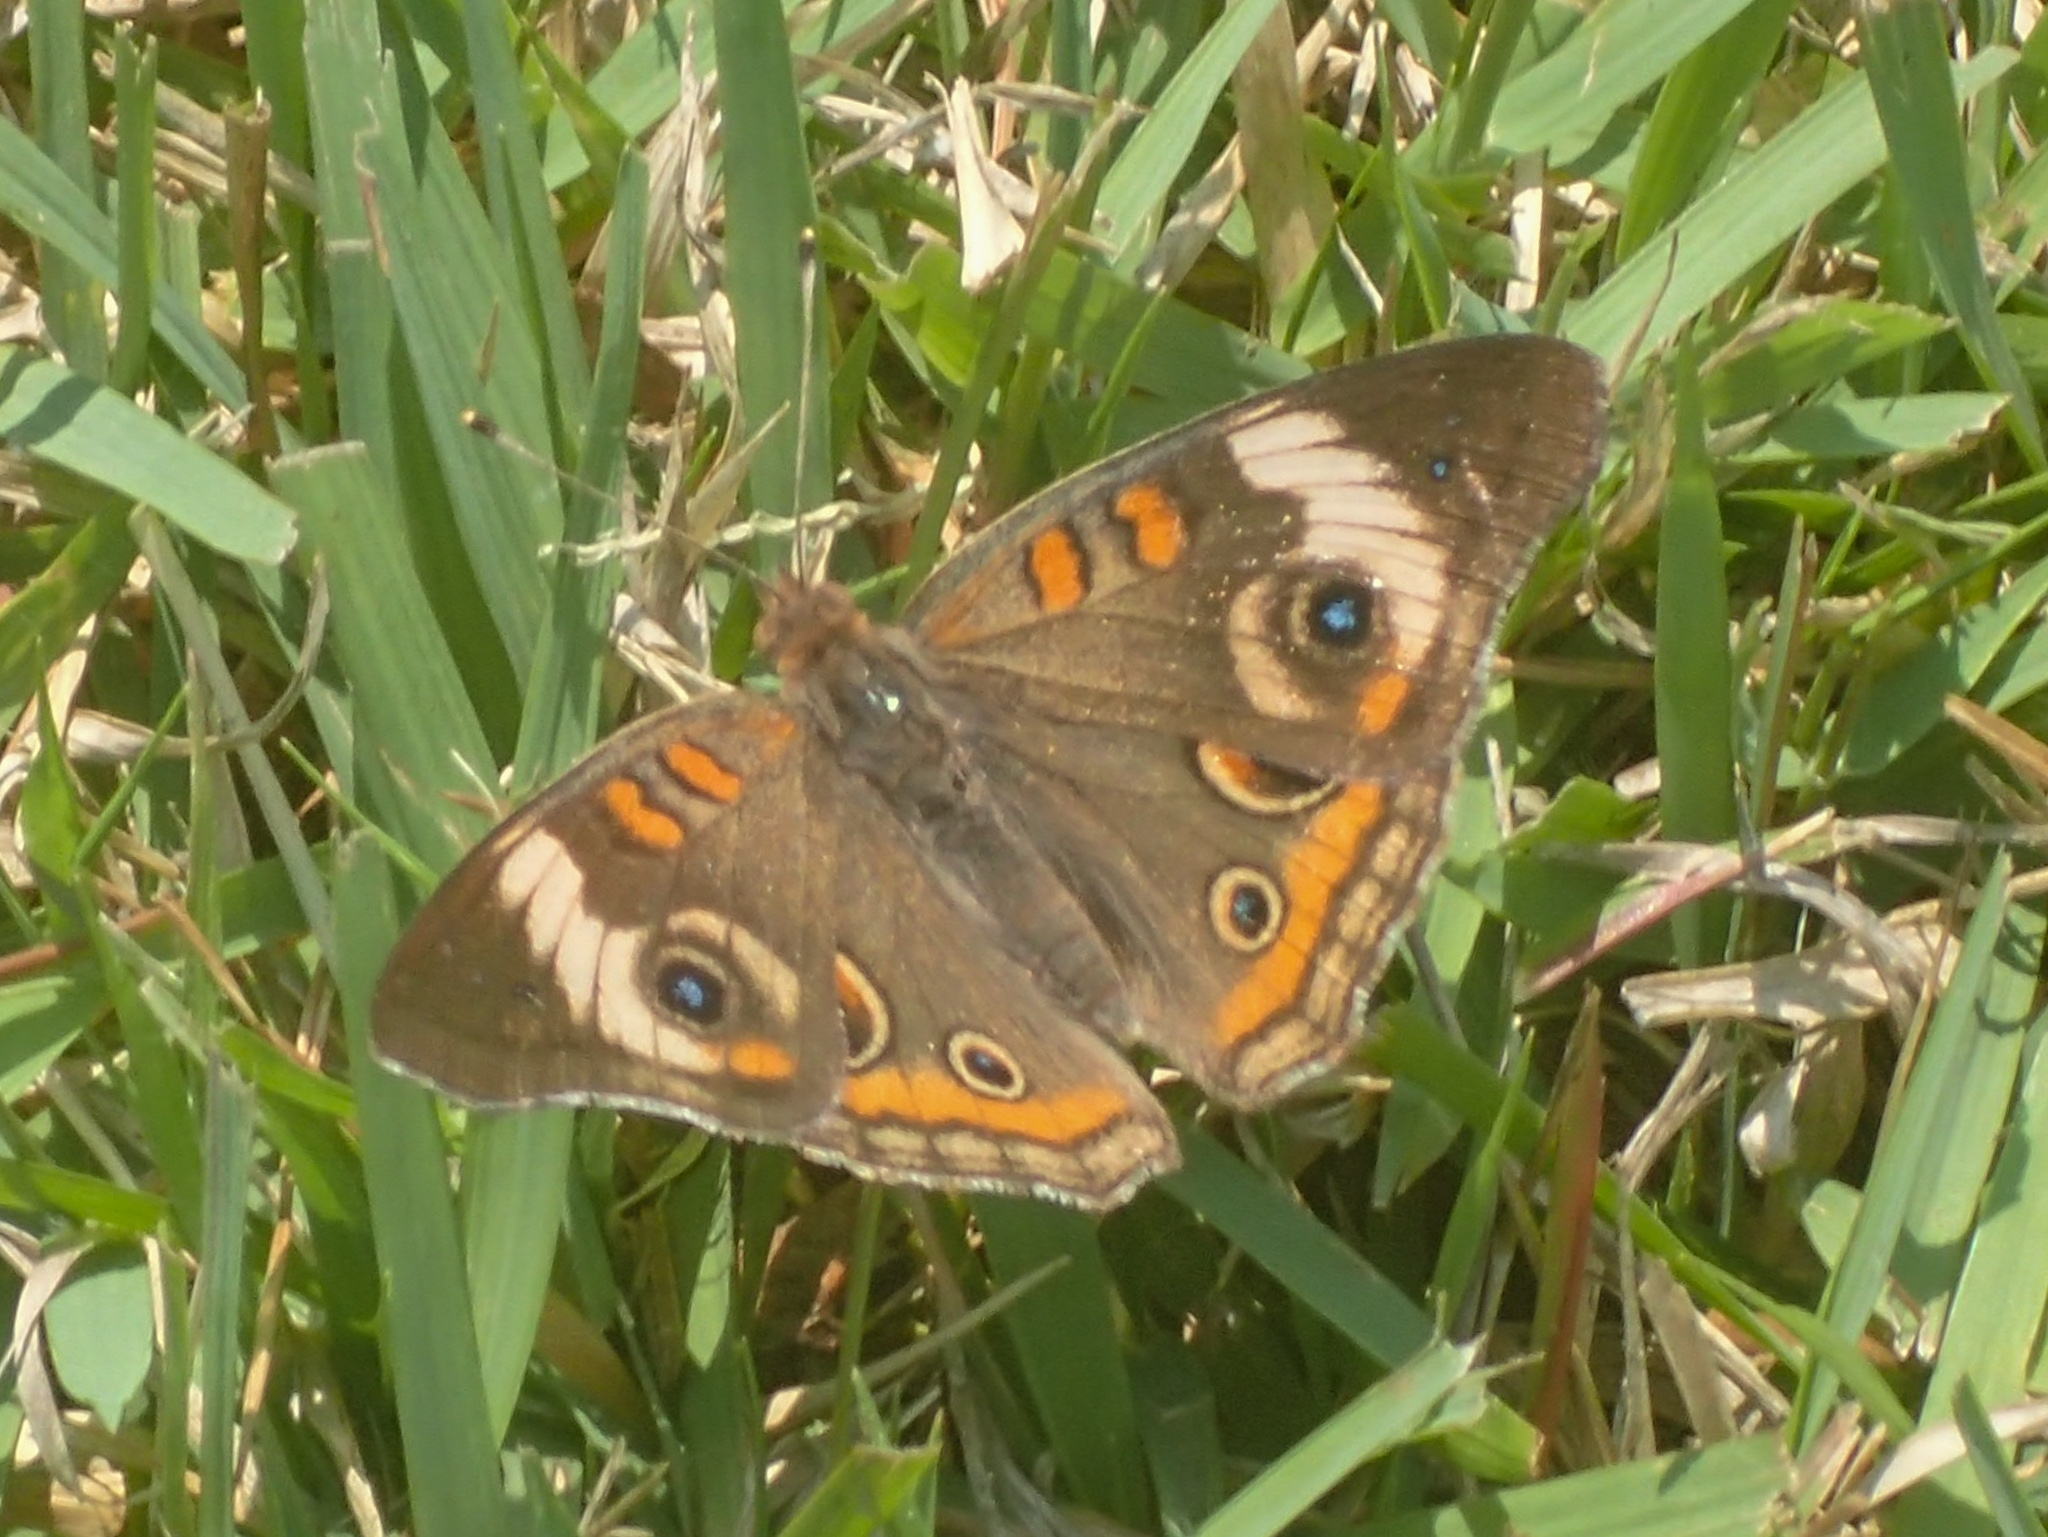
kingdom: Animalia
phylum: Arthropoda
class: Insecta
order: Lepidoptera
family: Nymphalidae
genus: Junonia
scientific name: Junonia coenia
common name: Common buckeye
